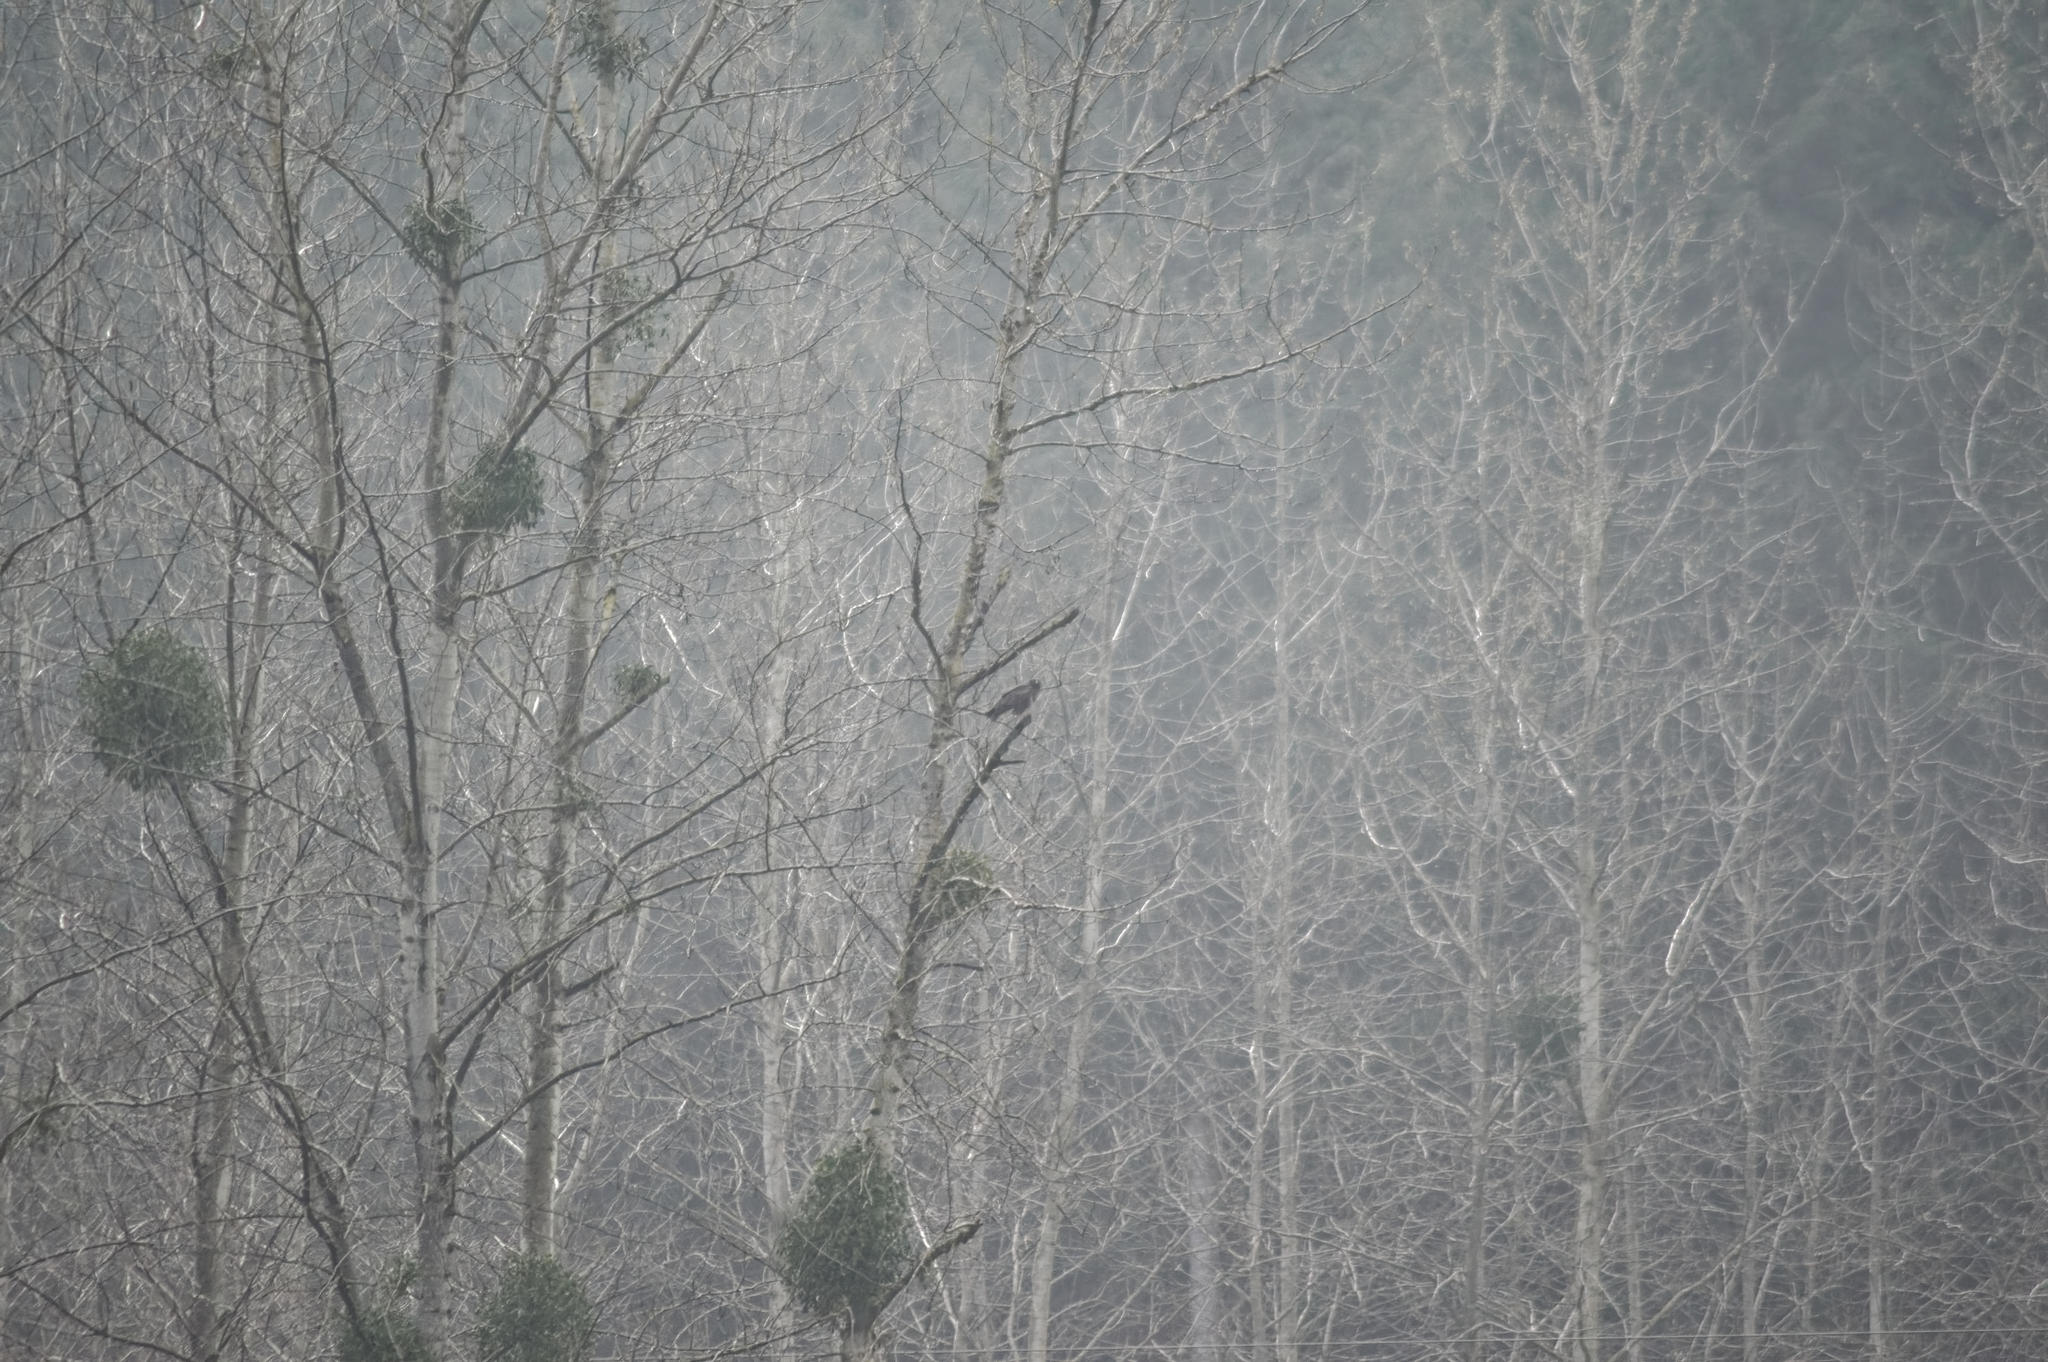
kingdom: Animalia
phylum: Chordata
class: Aves
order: Accipitriformes
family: Accipitridae
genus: Buteo
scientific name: Buteo buteo
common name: Common buzzard
